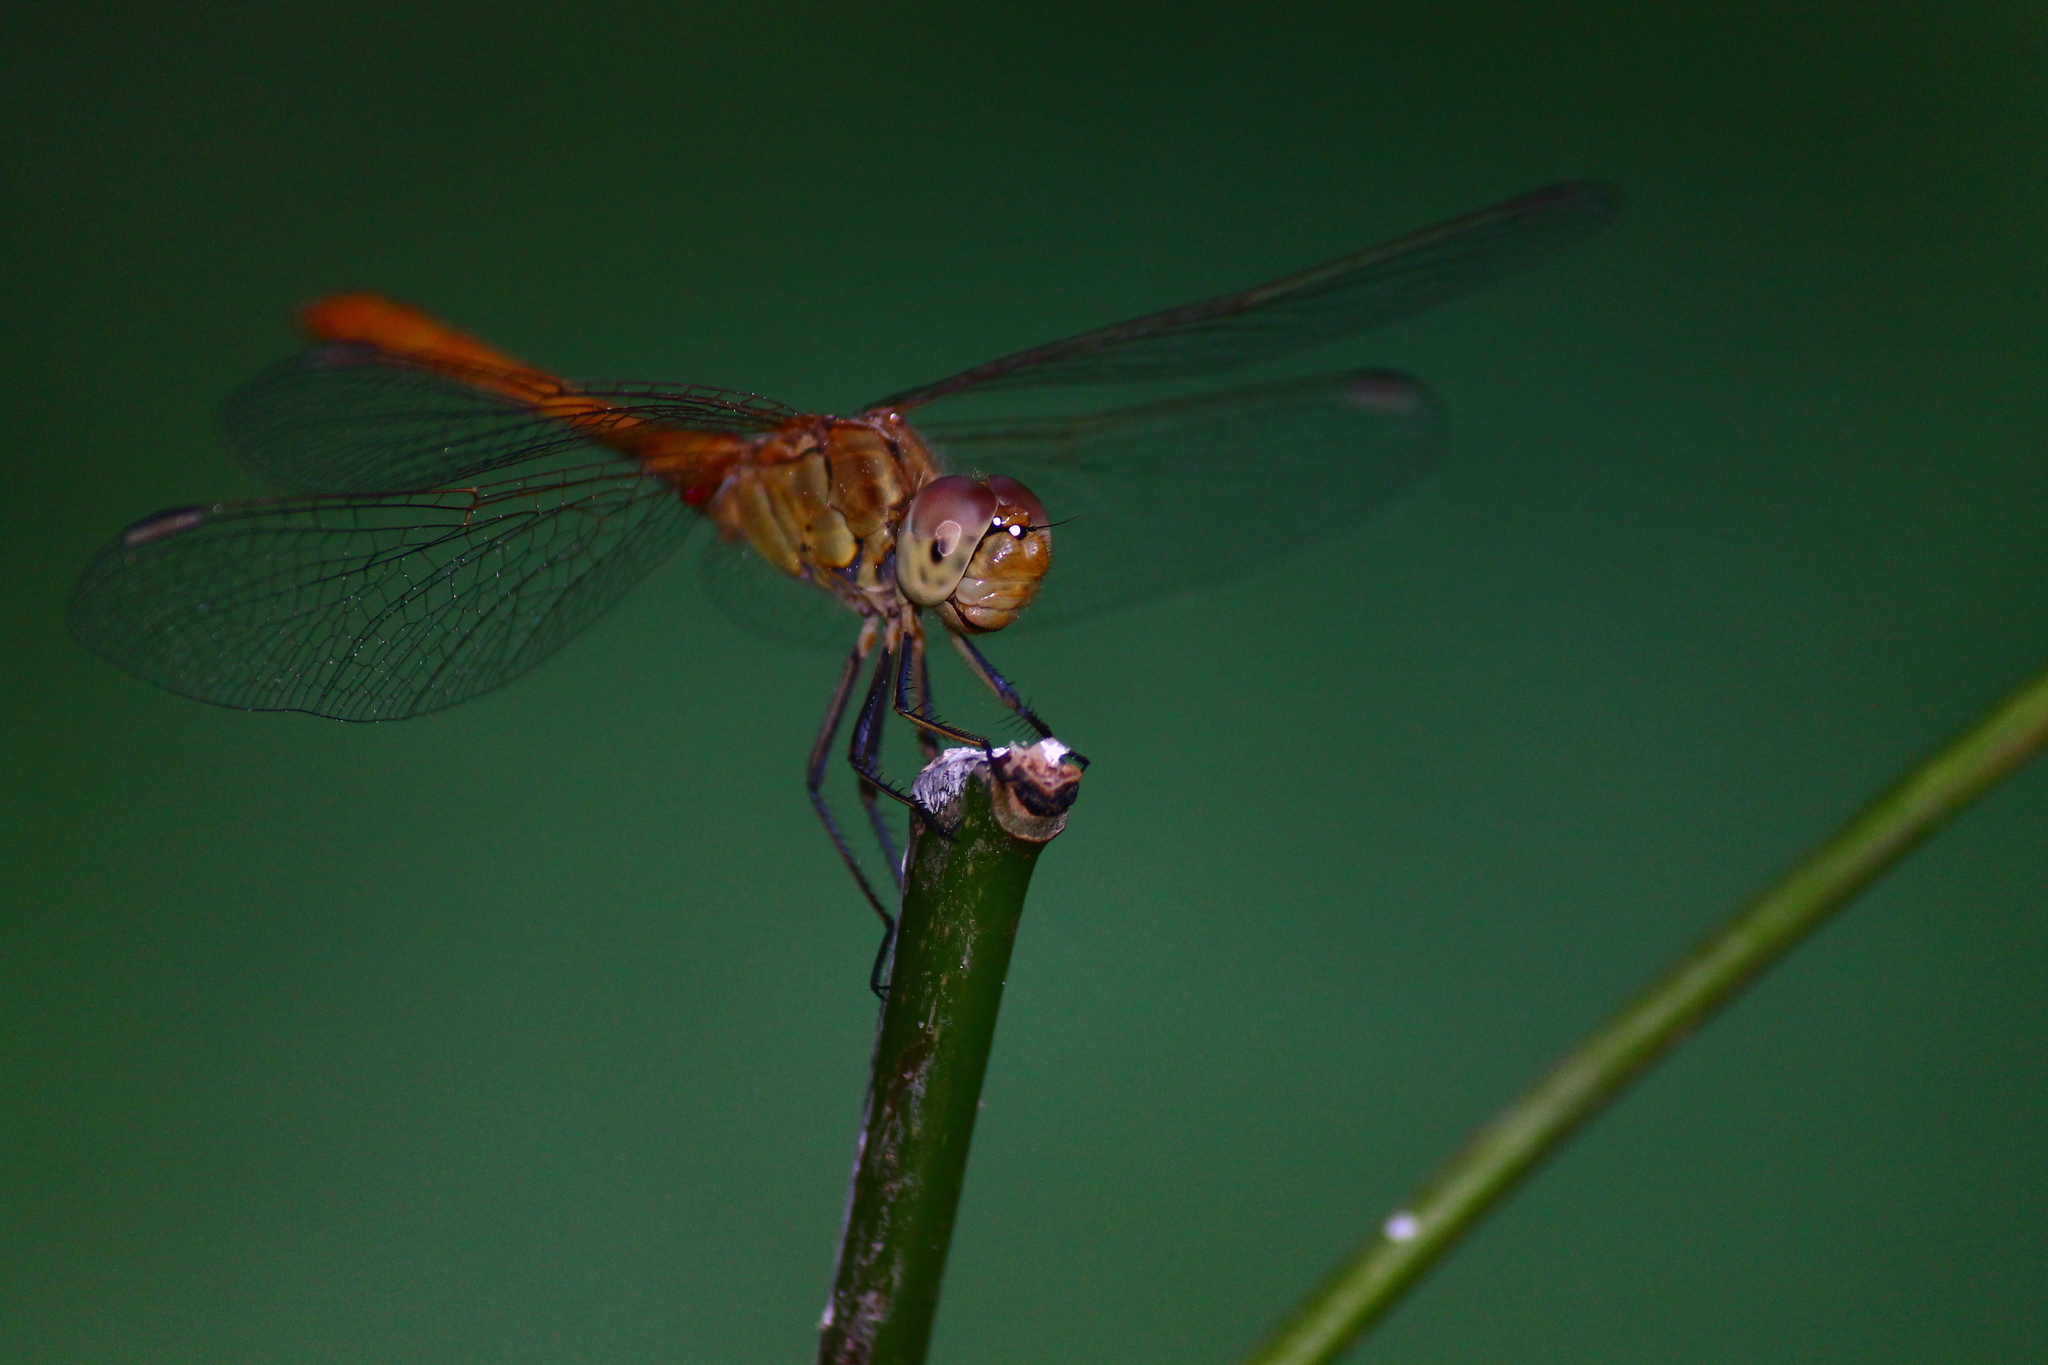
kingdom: Animalia
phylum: Arthropoda
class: Insecta
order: Odonata
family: Libellulidae
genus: Sympetrum
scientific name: Sympetrum meridionale
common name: Southern darter
